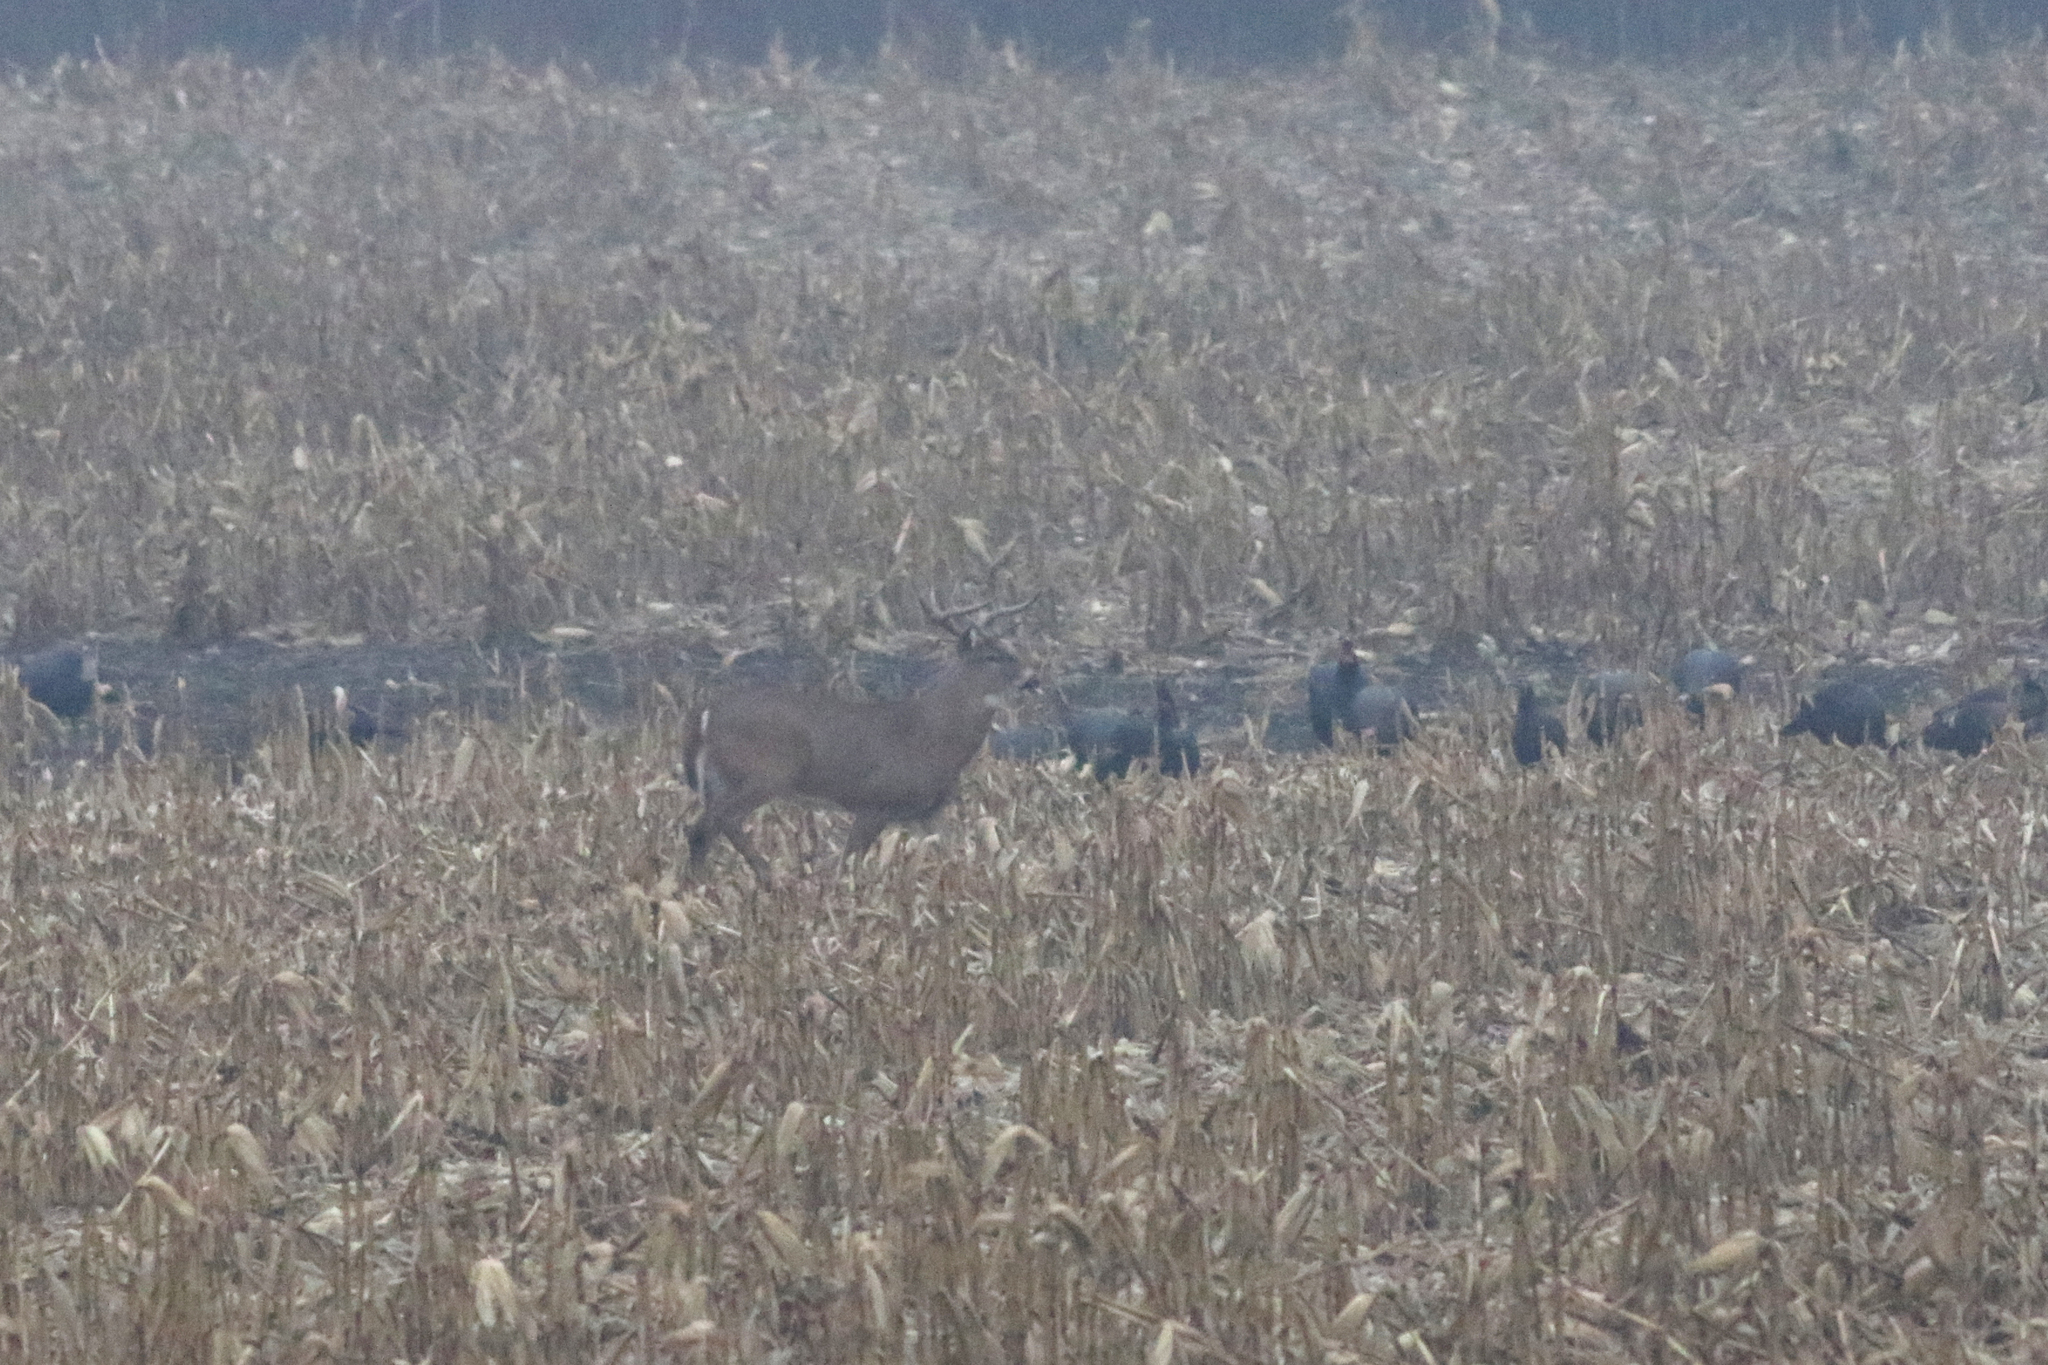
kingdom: Animalia
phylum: Chordata
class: Mammalia
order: Artiodactyla
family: Cervidae
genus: Odocoileus
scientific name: Odocoileus virginianus
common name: White-tailed deer
